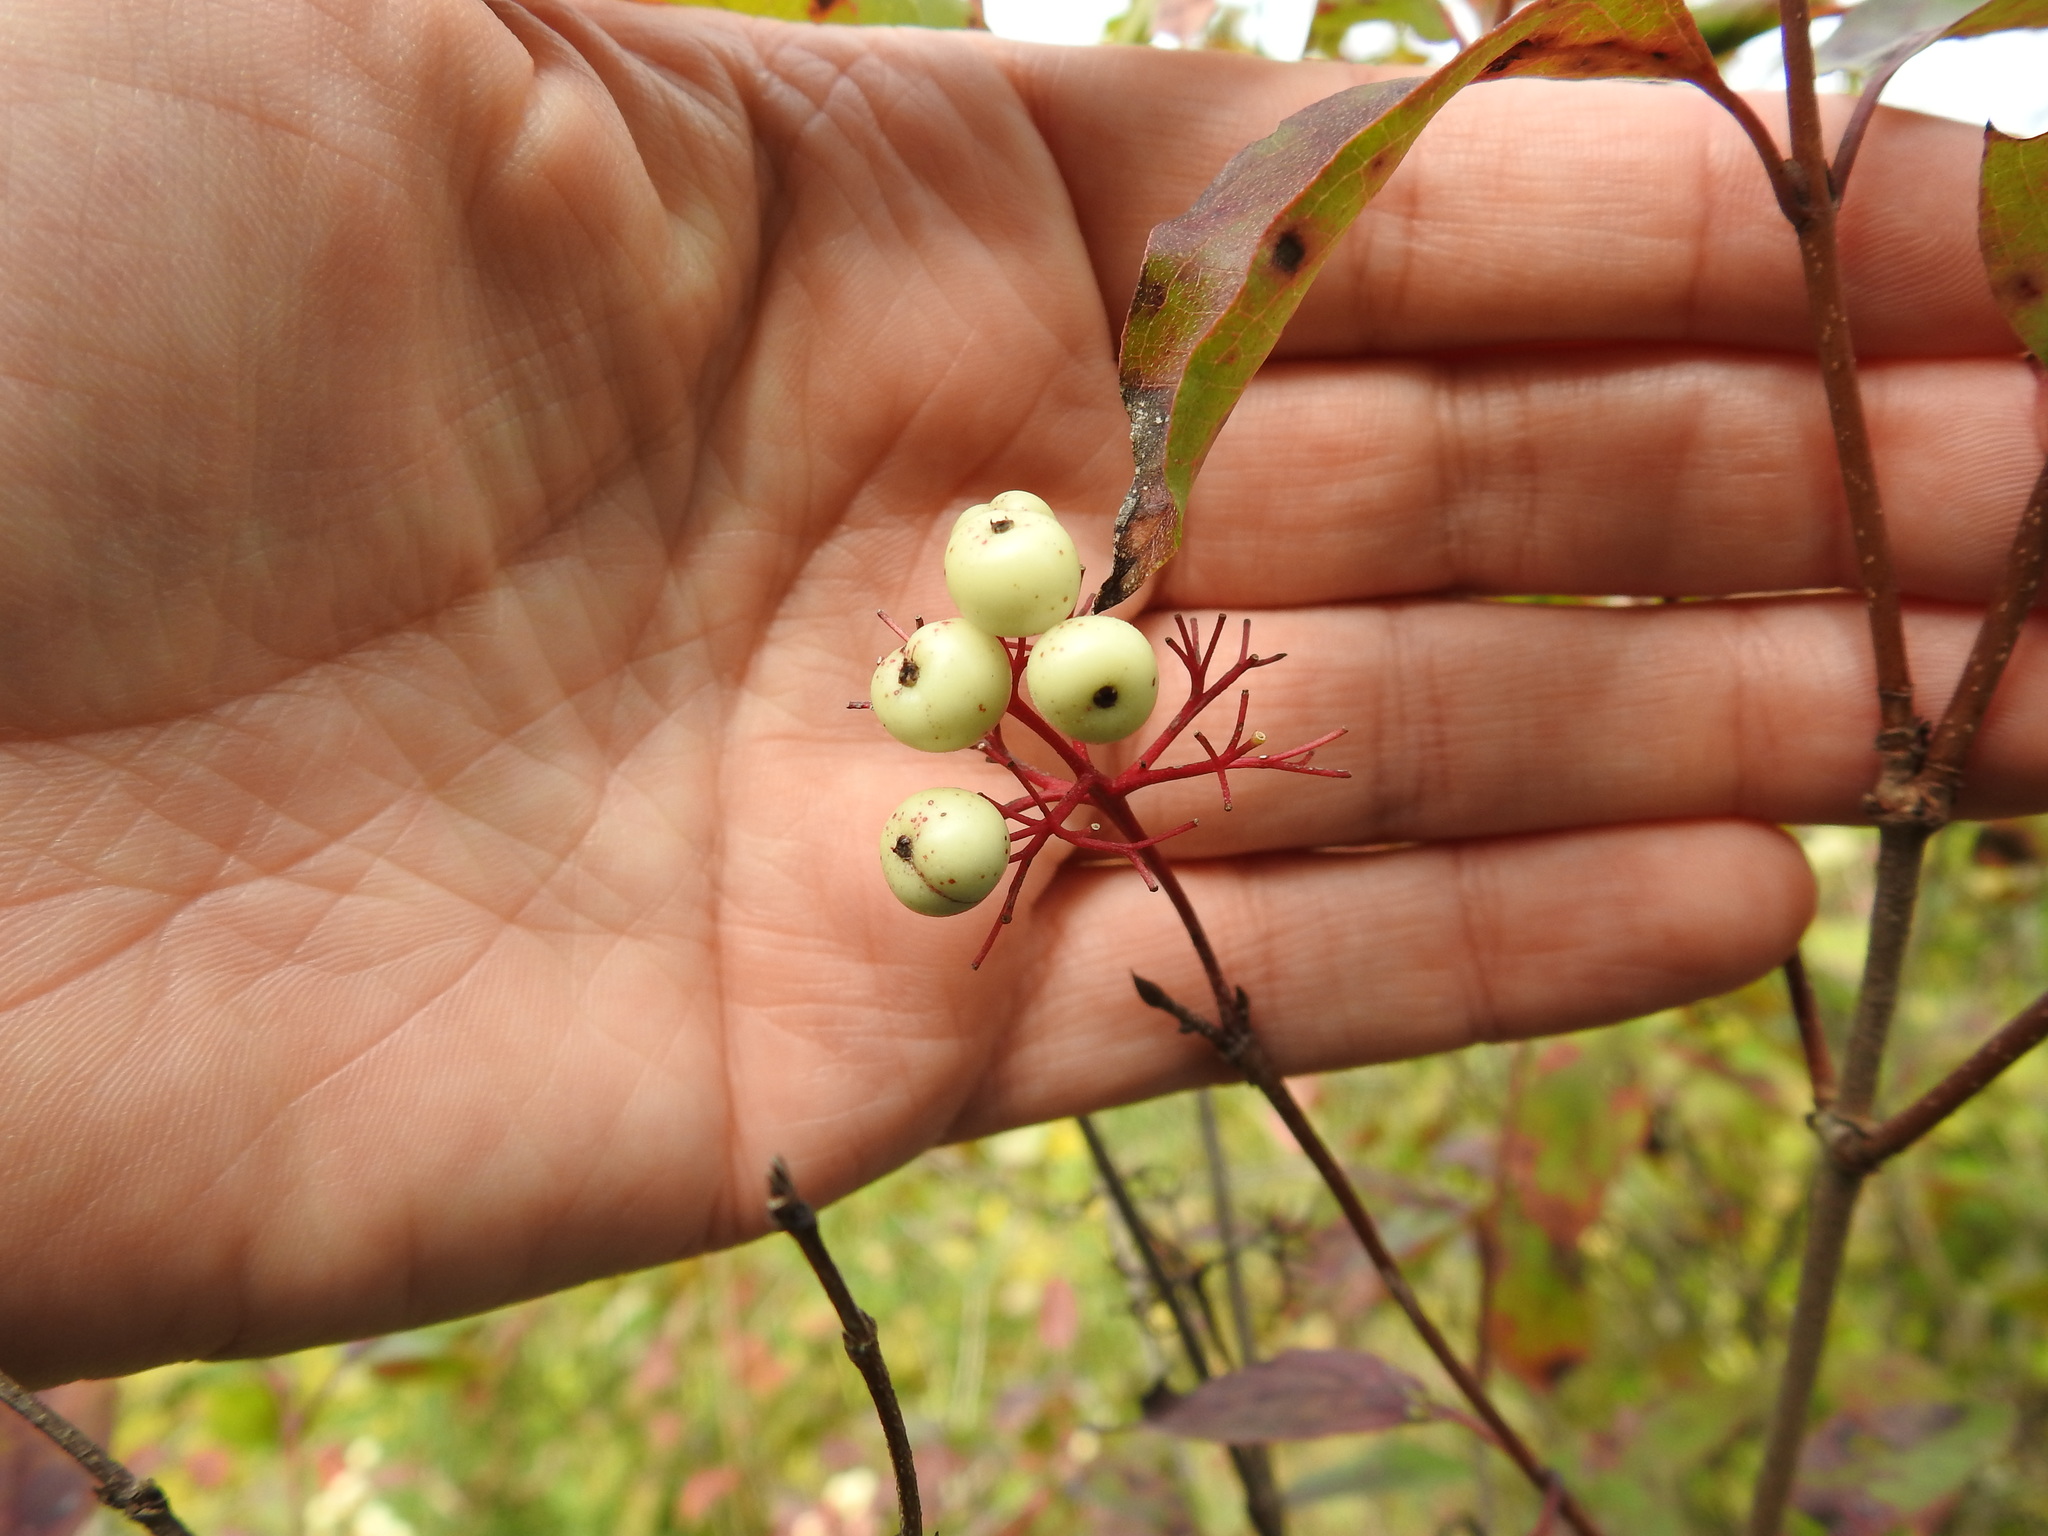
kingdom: Plantae
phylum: Tracheophyta
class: Magnoliopsida
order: Cornales
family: Cornaceae
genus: Cornus
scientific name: Cornus racemosa
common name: Panicled dogwood
